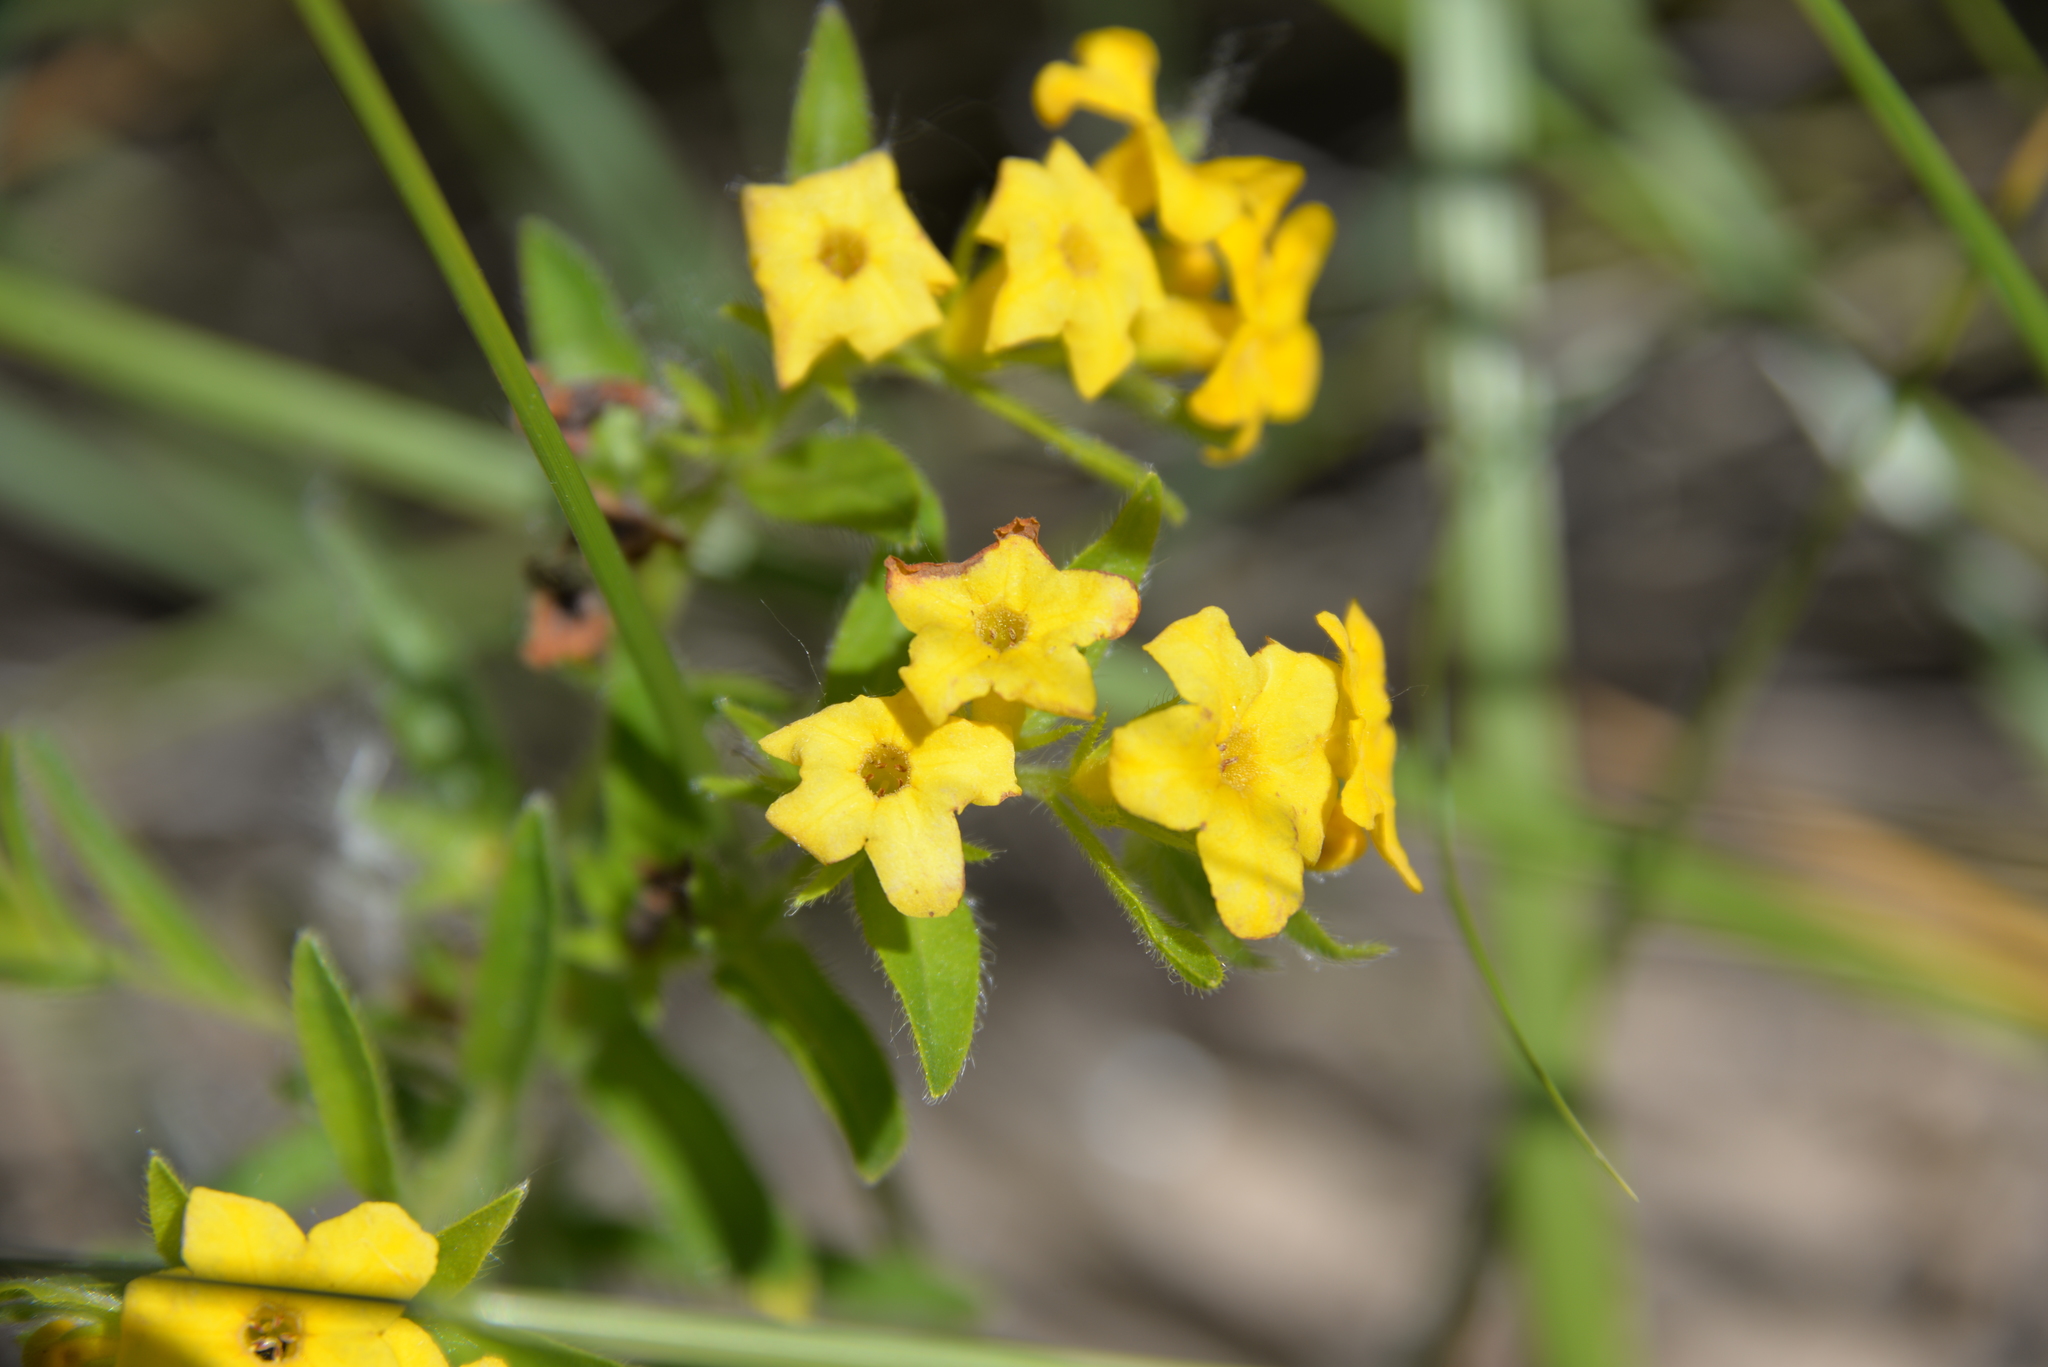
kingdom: Plantae
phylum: Tracheophyta
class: Magnoliopsida
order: Boraginales
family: Boraginaceae
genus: Lithospermum
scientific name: Lithospermum caroliniense
